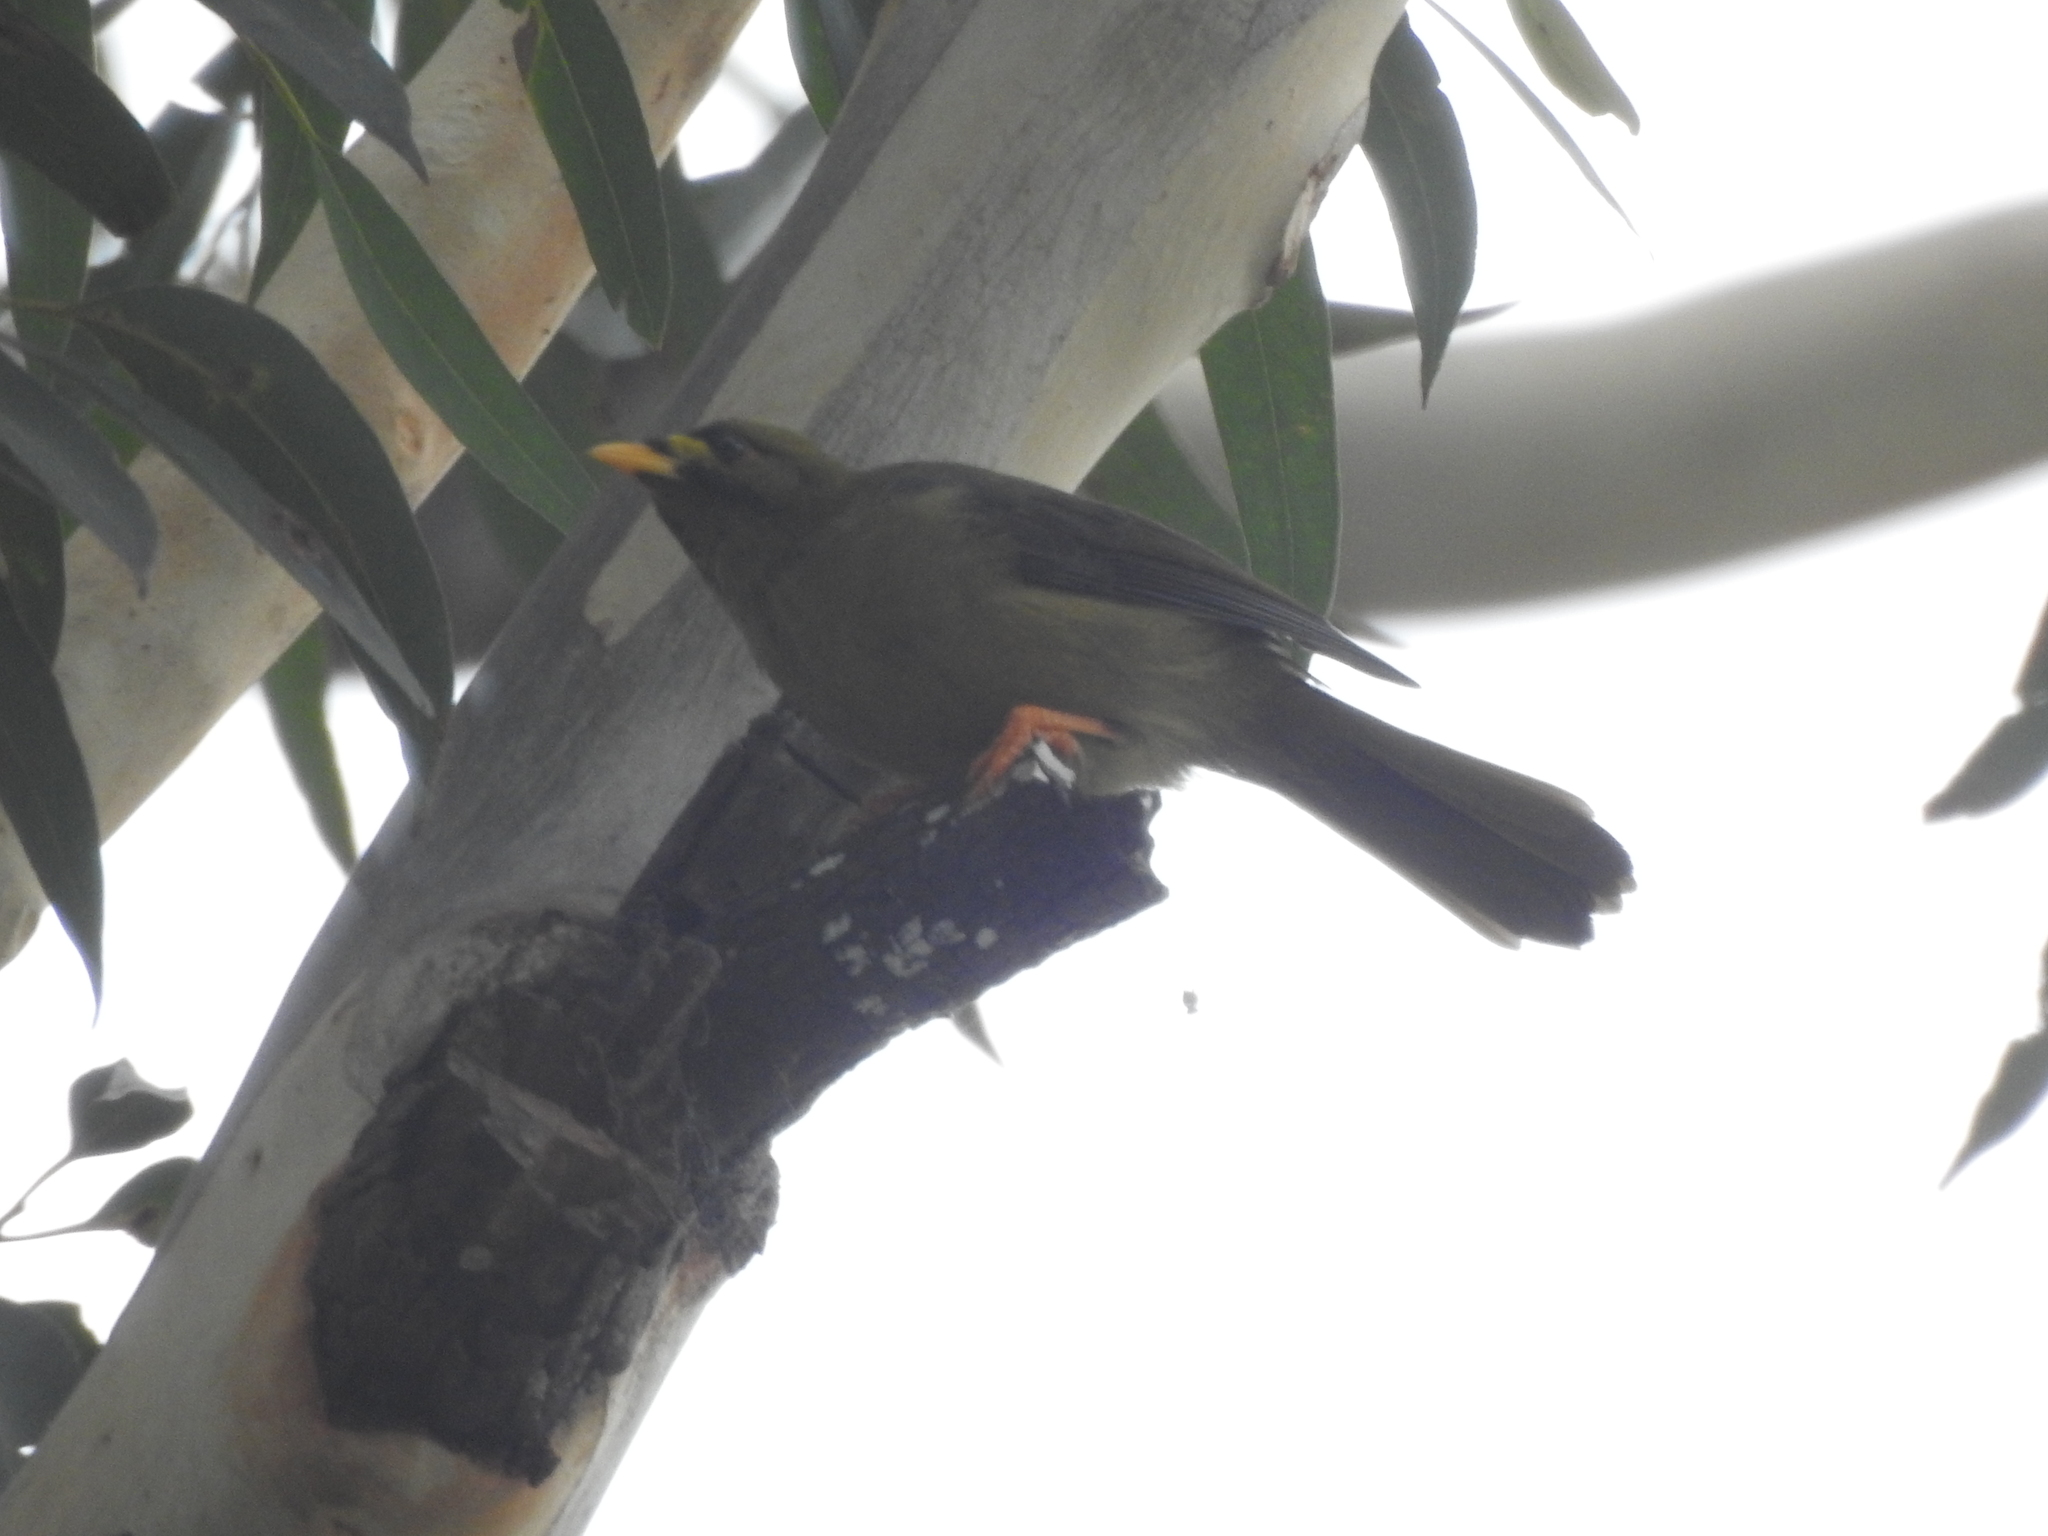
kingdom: Animalia
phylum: Chordata
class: Aves
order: Passeriformes
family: Meliphagidae
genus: Manorina
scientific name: Manorina melanophrys
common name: Bell miner
